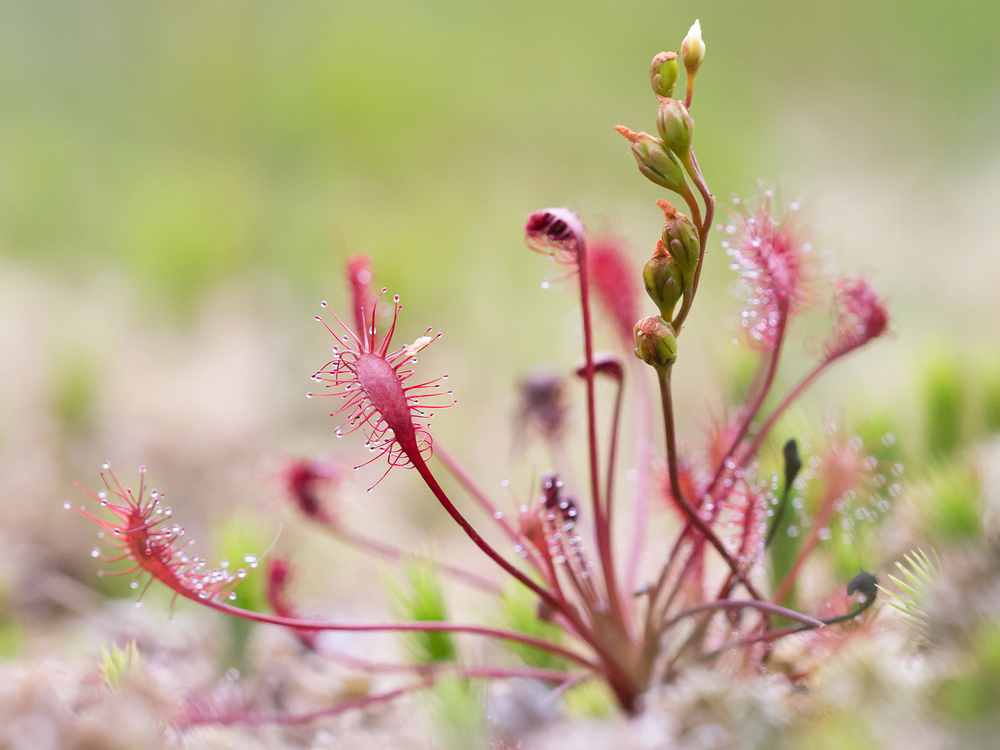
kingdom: Plantae
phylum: Tracheophyta
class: Magnoliopsida
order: Caryophyllales
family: Droseraceae
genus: Drosera
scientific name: Drosera intermedia
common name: Oblong-leaved sundew
